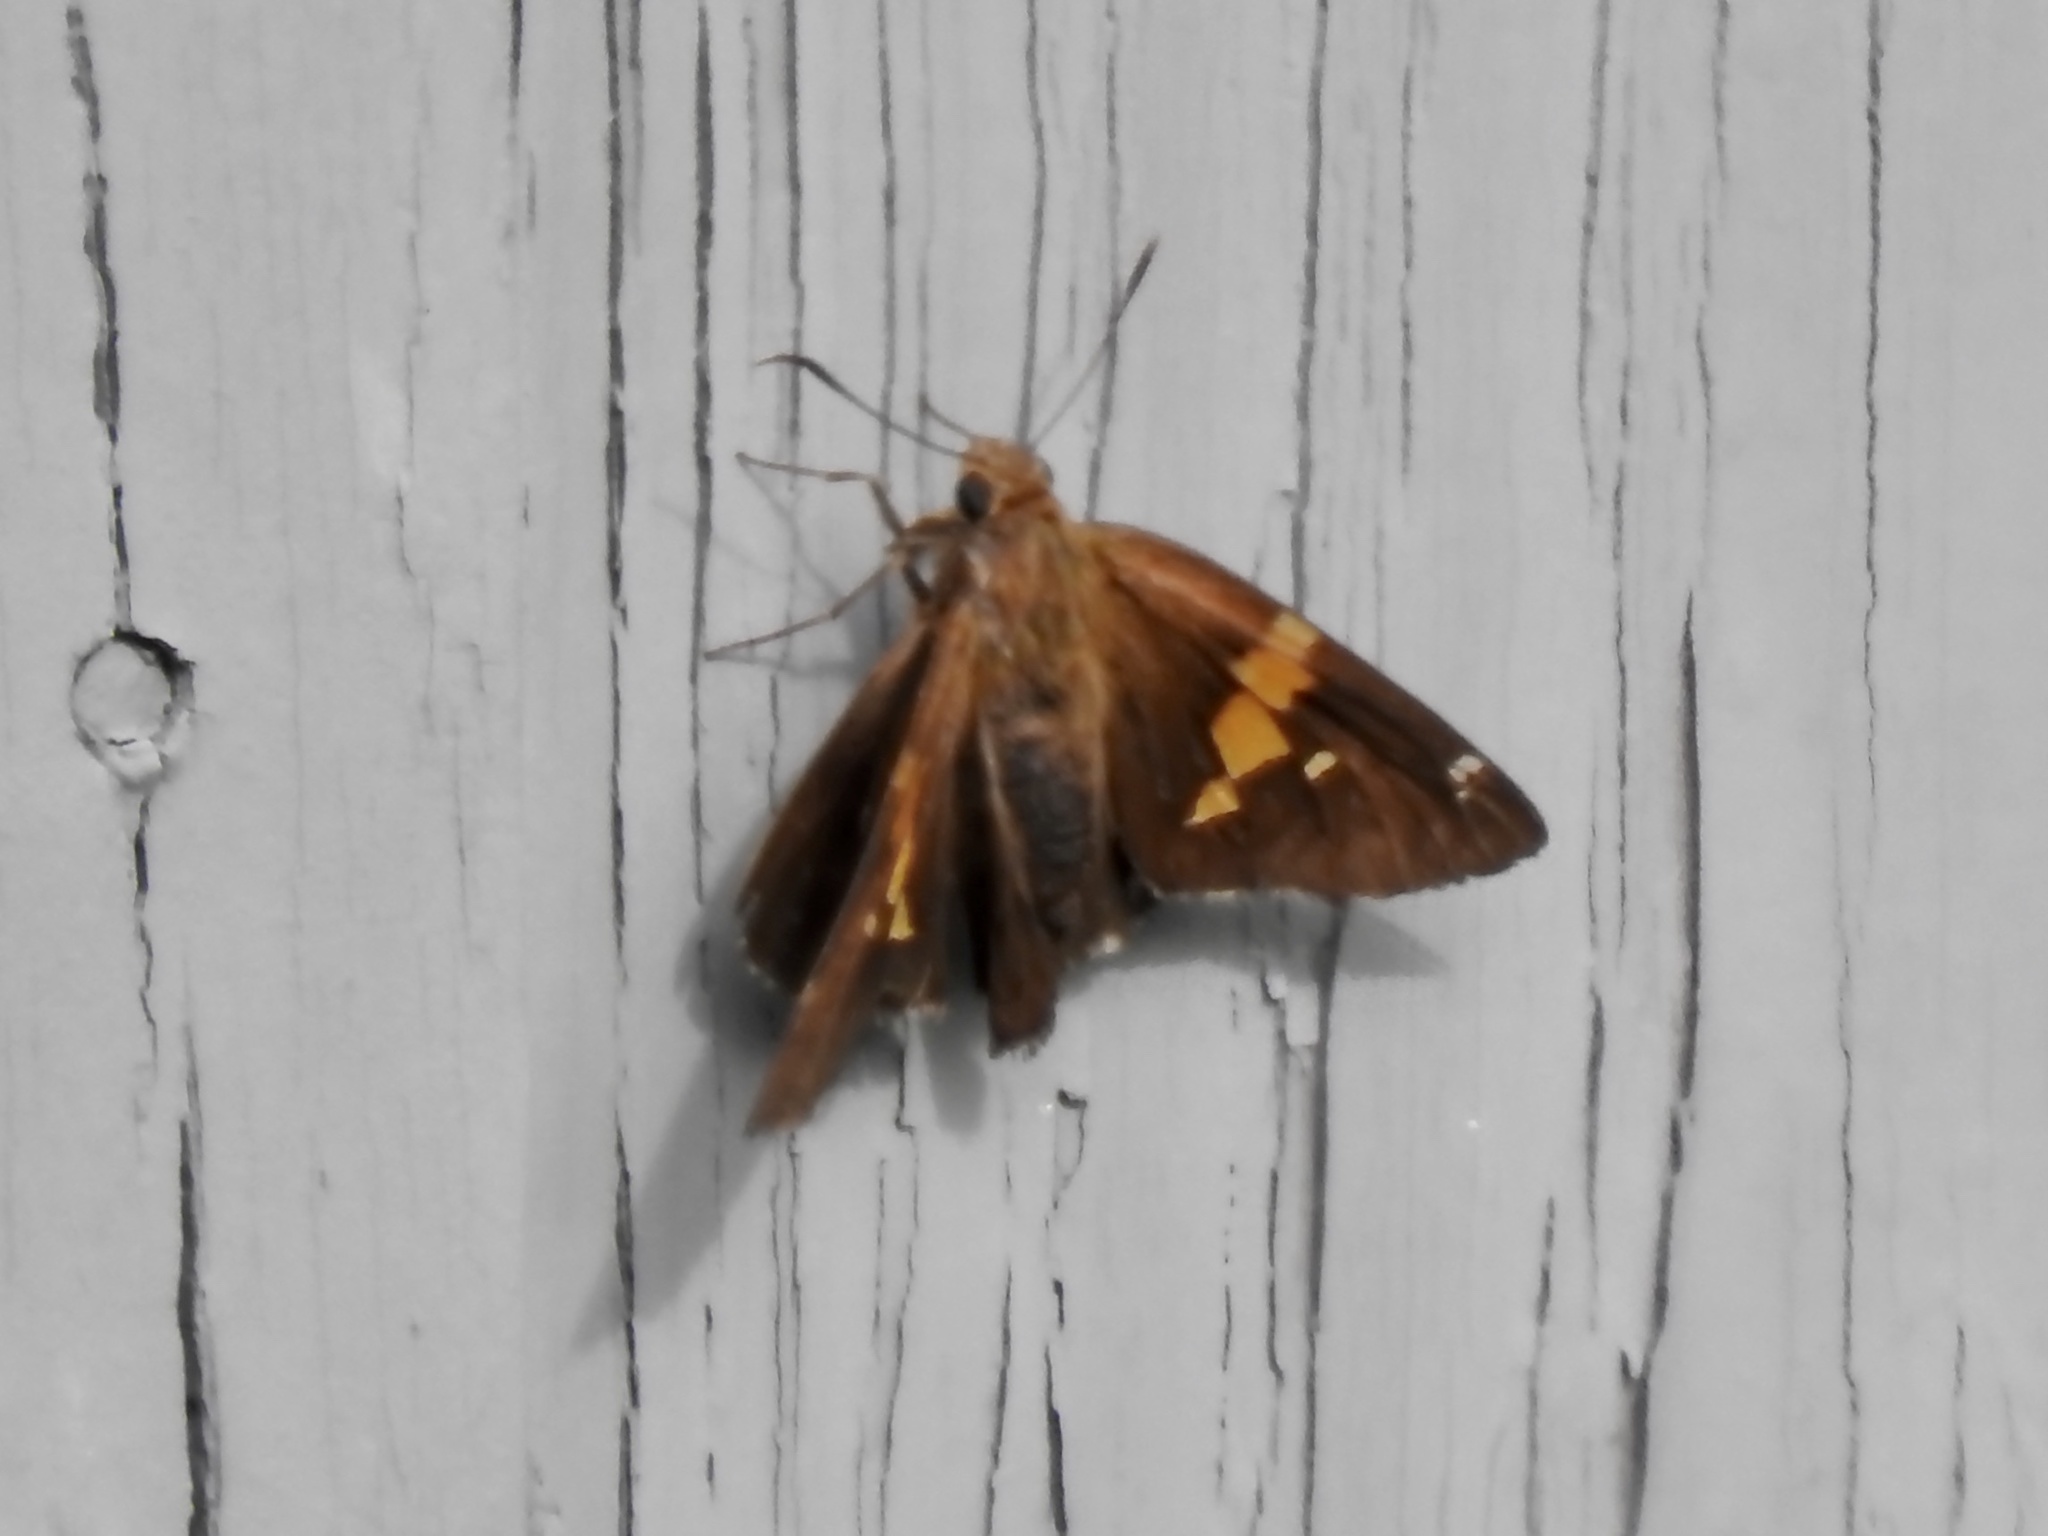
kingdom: Animalia
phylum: Arthropoda
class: Insecta
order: Lepidoptera
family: Hesperiidae
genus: Epargyreus
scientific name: Epargyreus clarus
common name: Silver-spotted skipper
